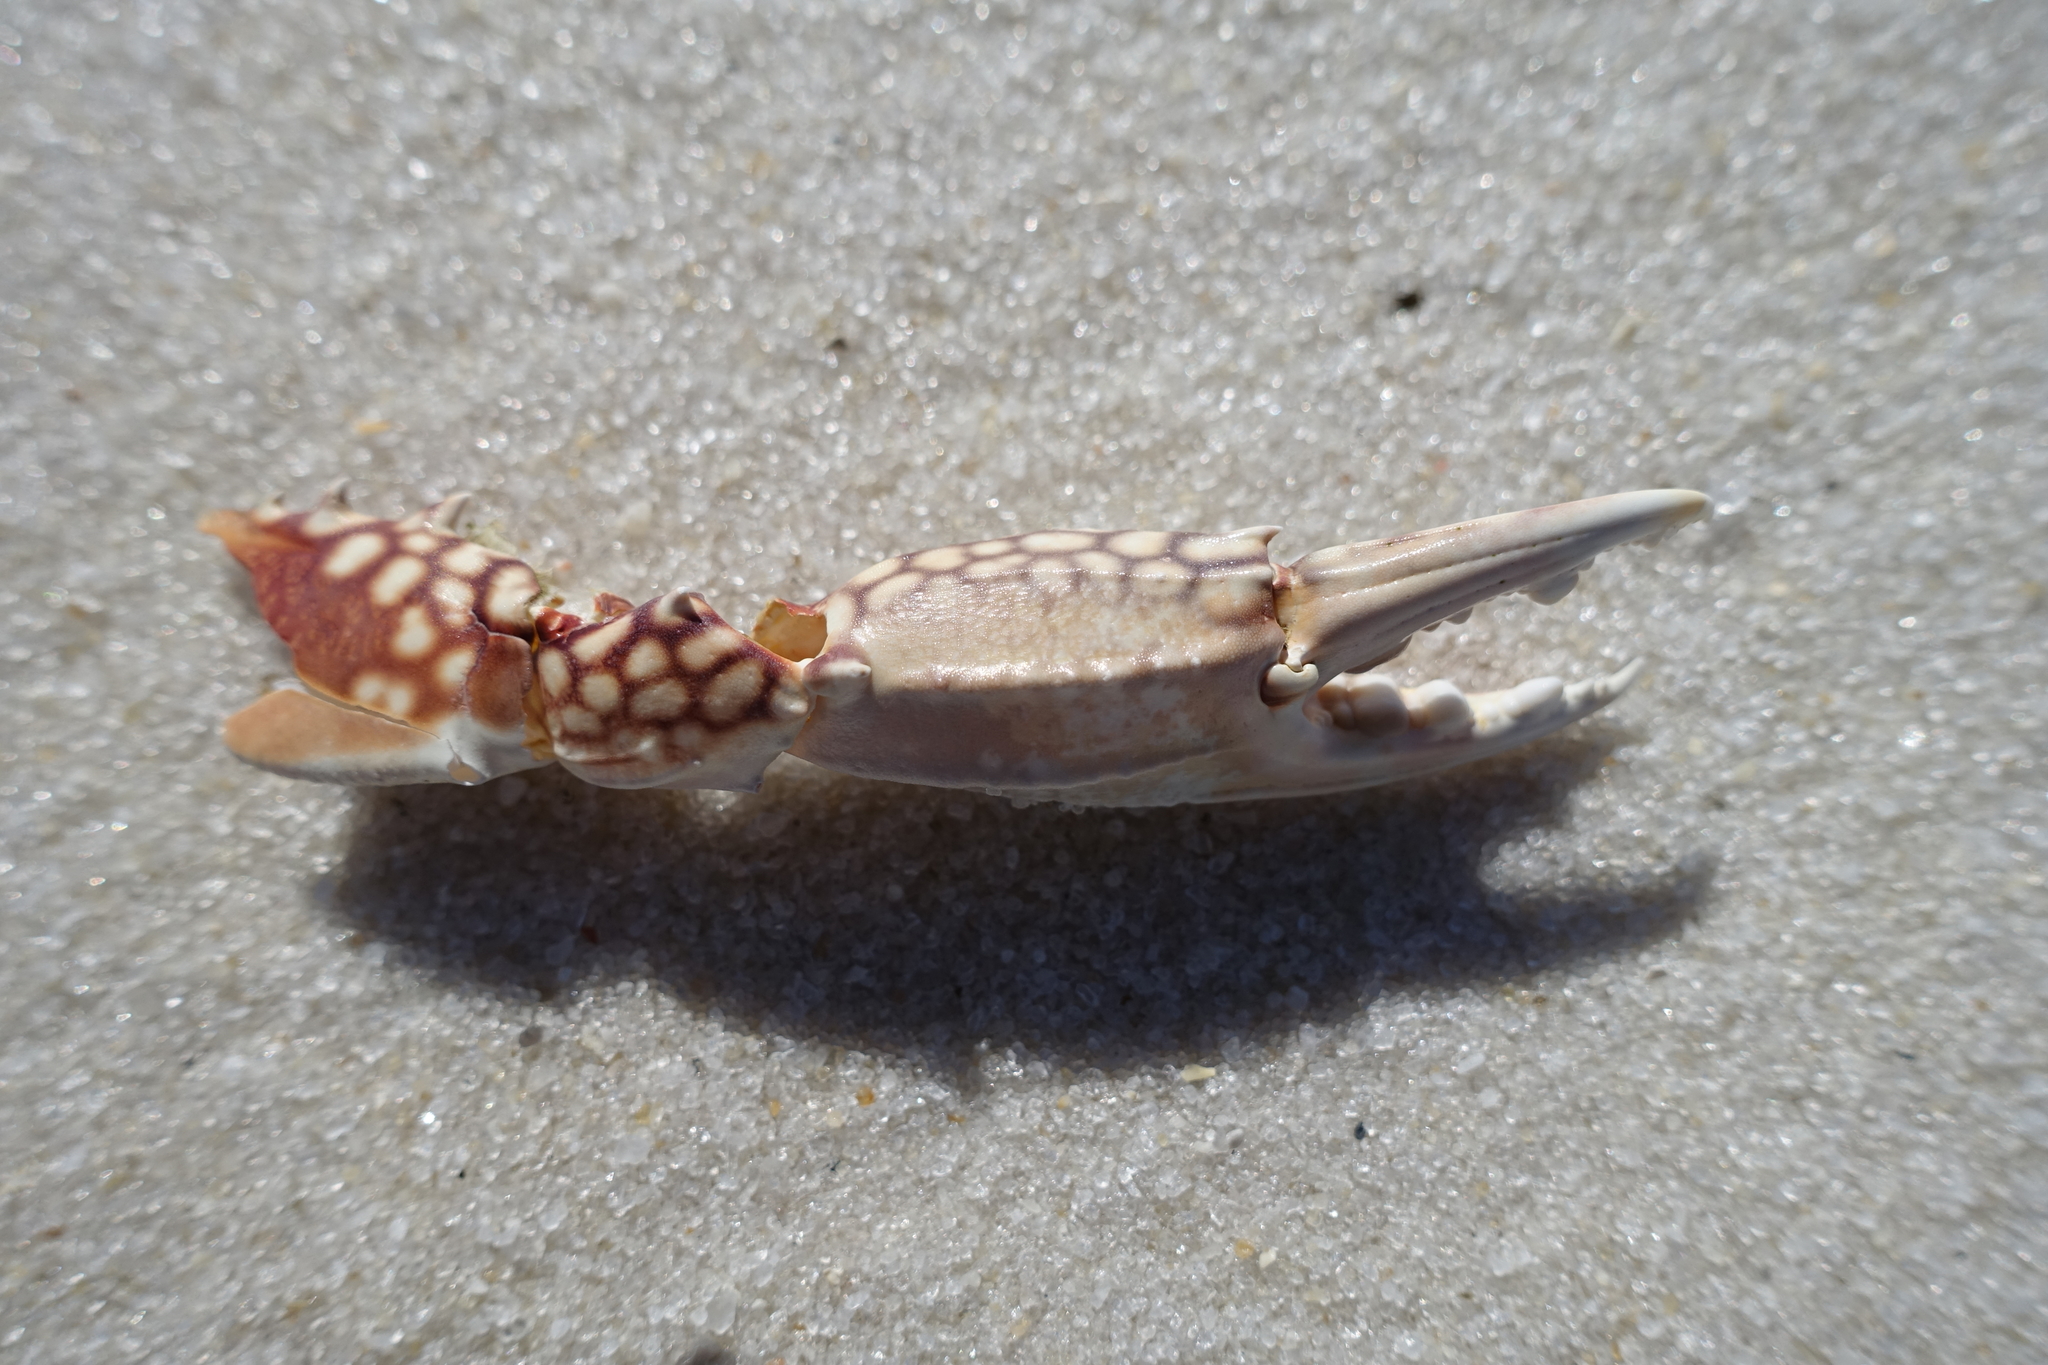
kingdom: Animalia
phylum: Arthropoda
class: Malacostraca
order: Decapoda
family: Portunidae
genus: Arenaeus
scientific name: Arenaeus cribrarius
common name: Speckled crab
